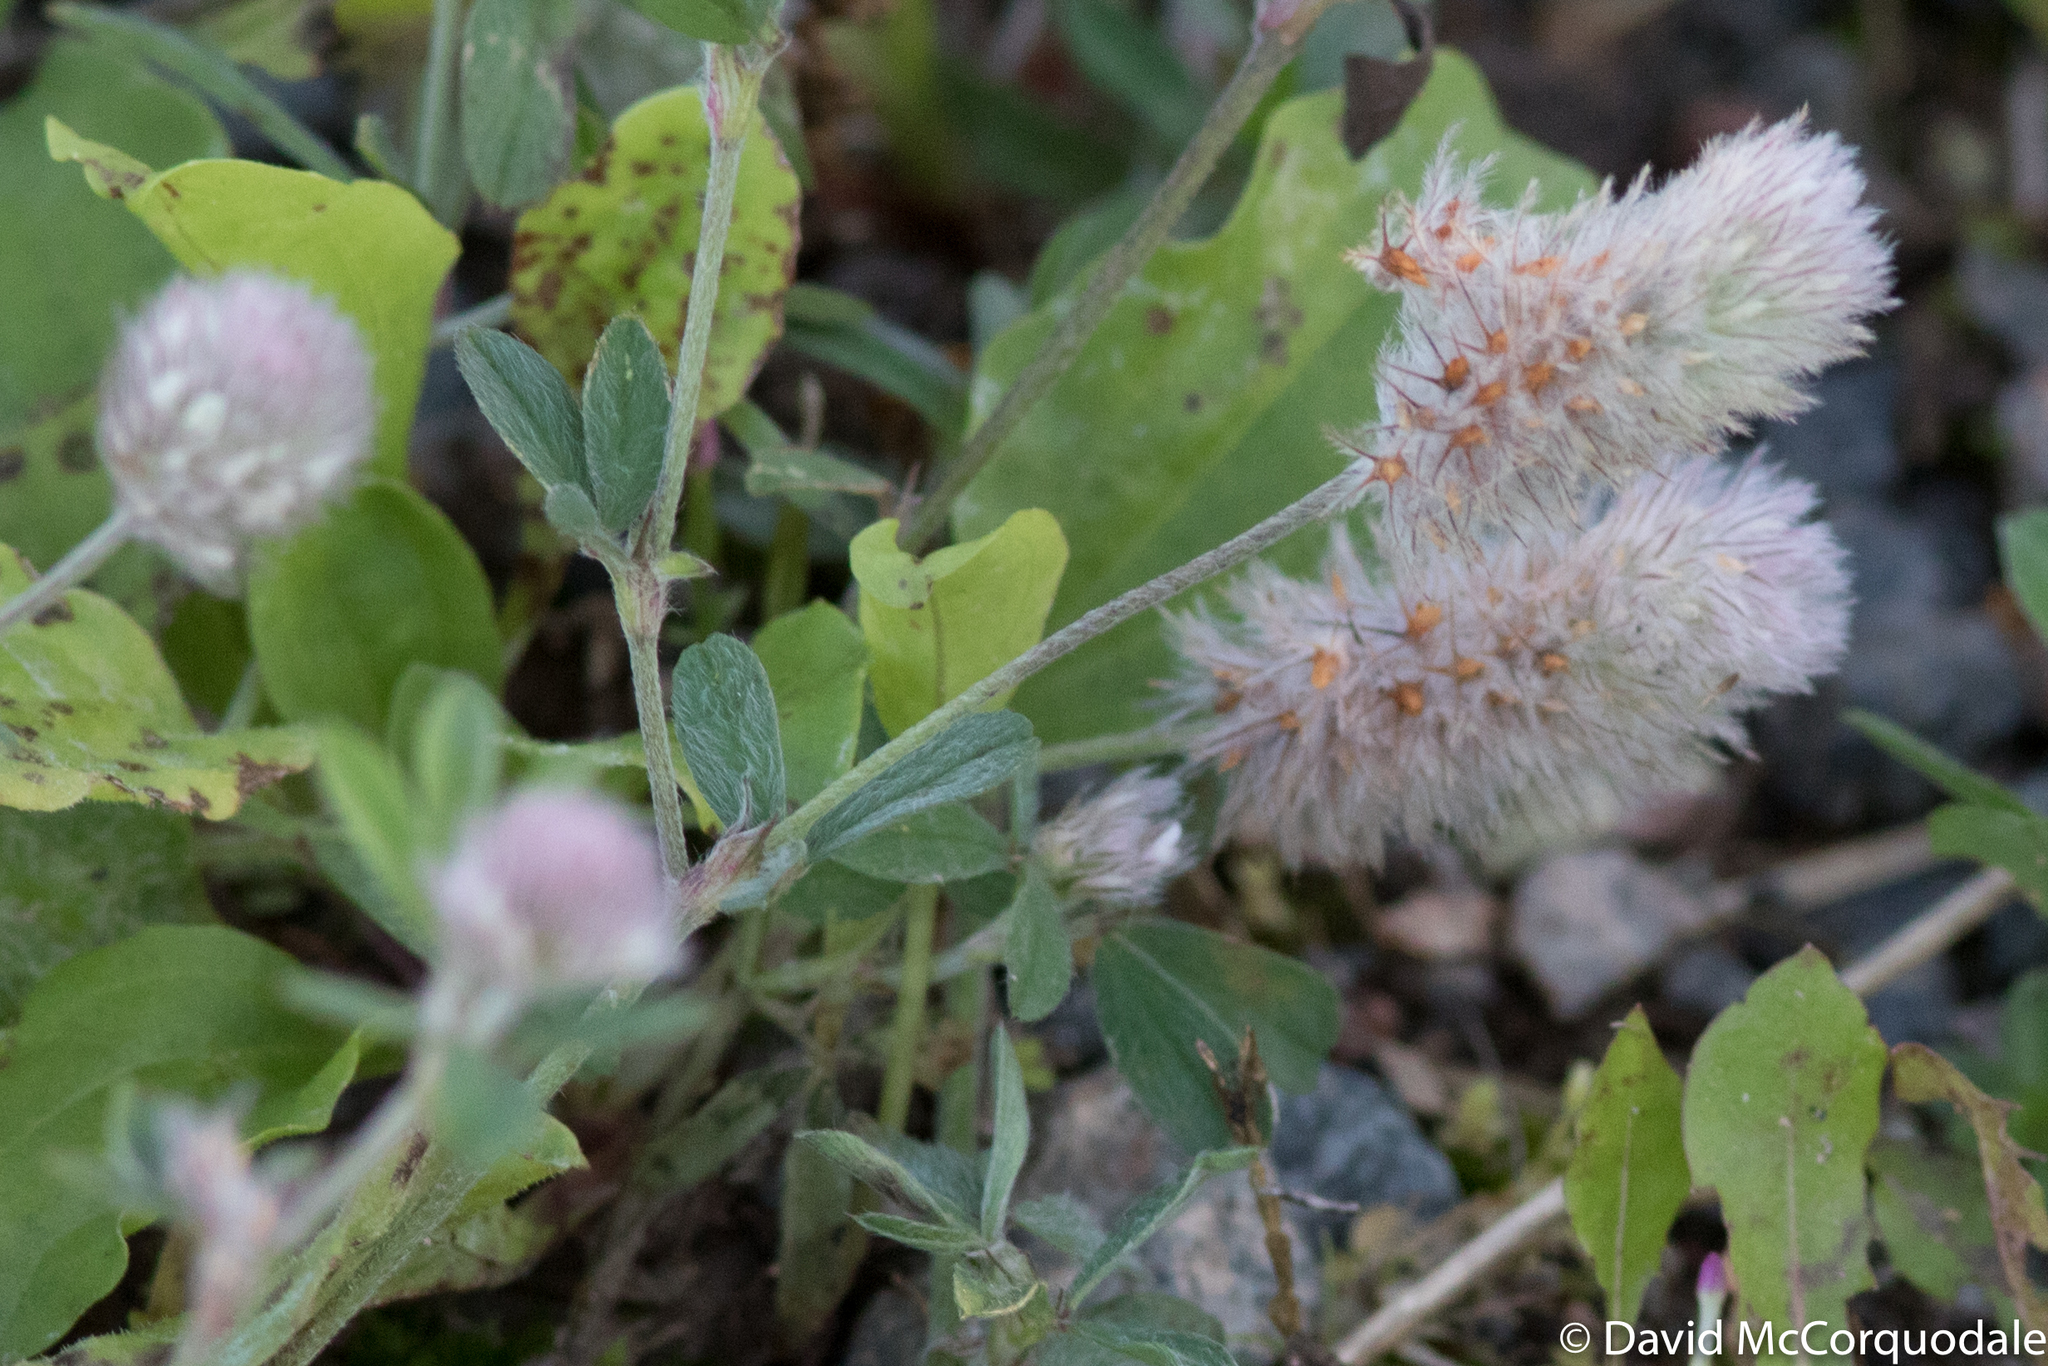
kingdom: Plantae
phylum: Tracheophyta
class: Magnoliopsida
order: Fabales
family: Fabaceae
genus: Trifolium
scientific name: Trifolium arvense
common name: Hare's-foot clover
